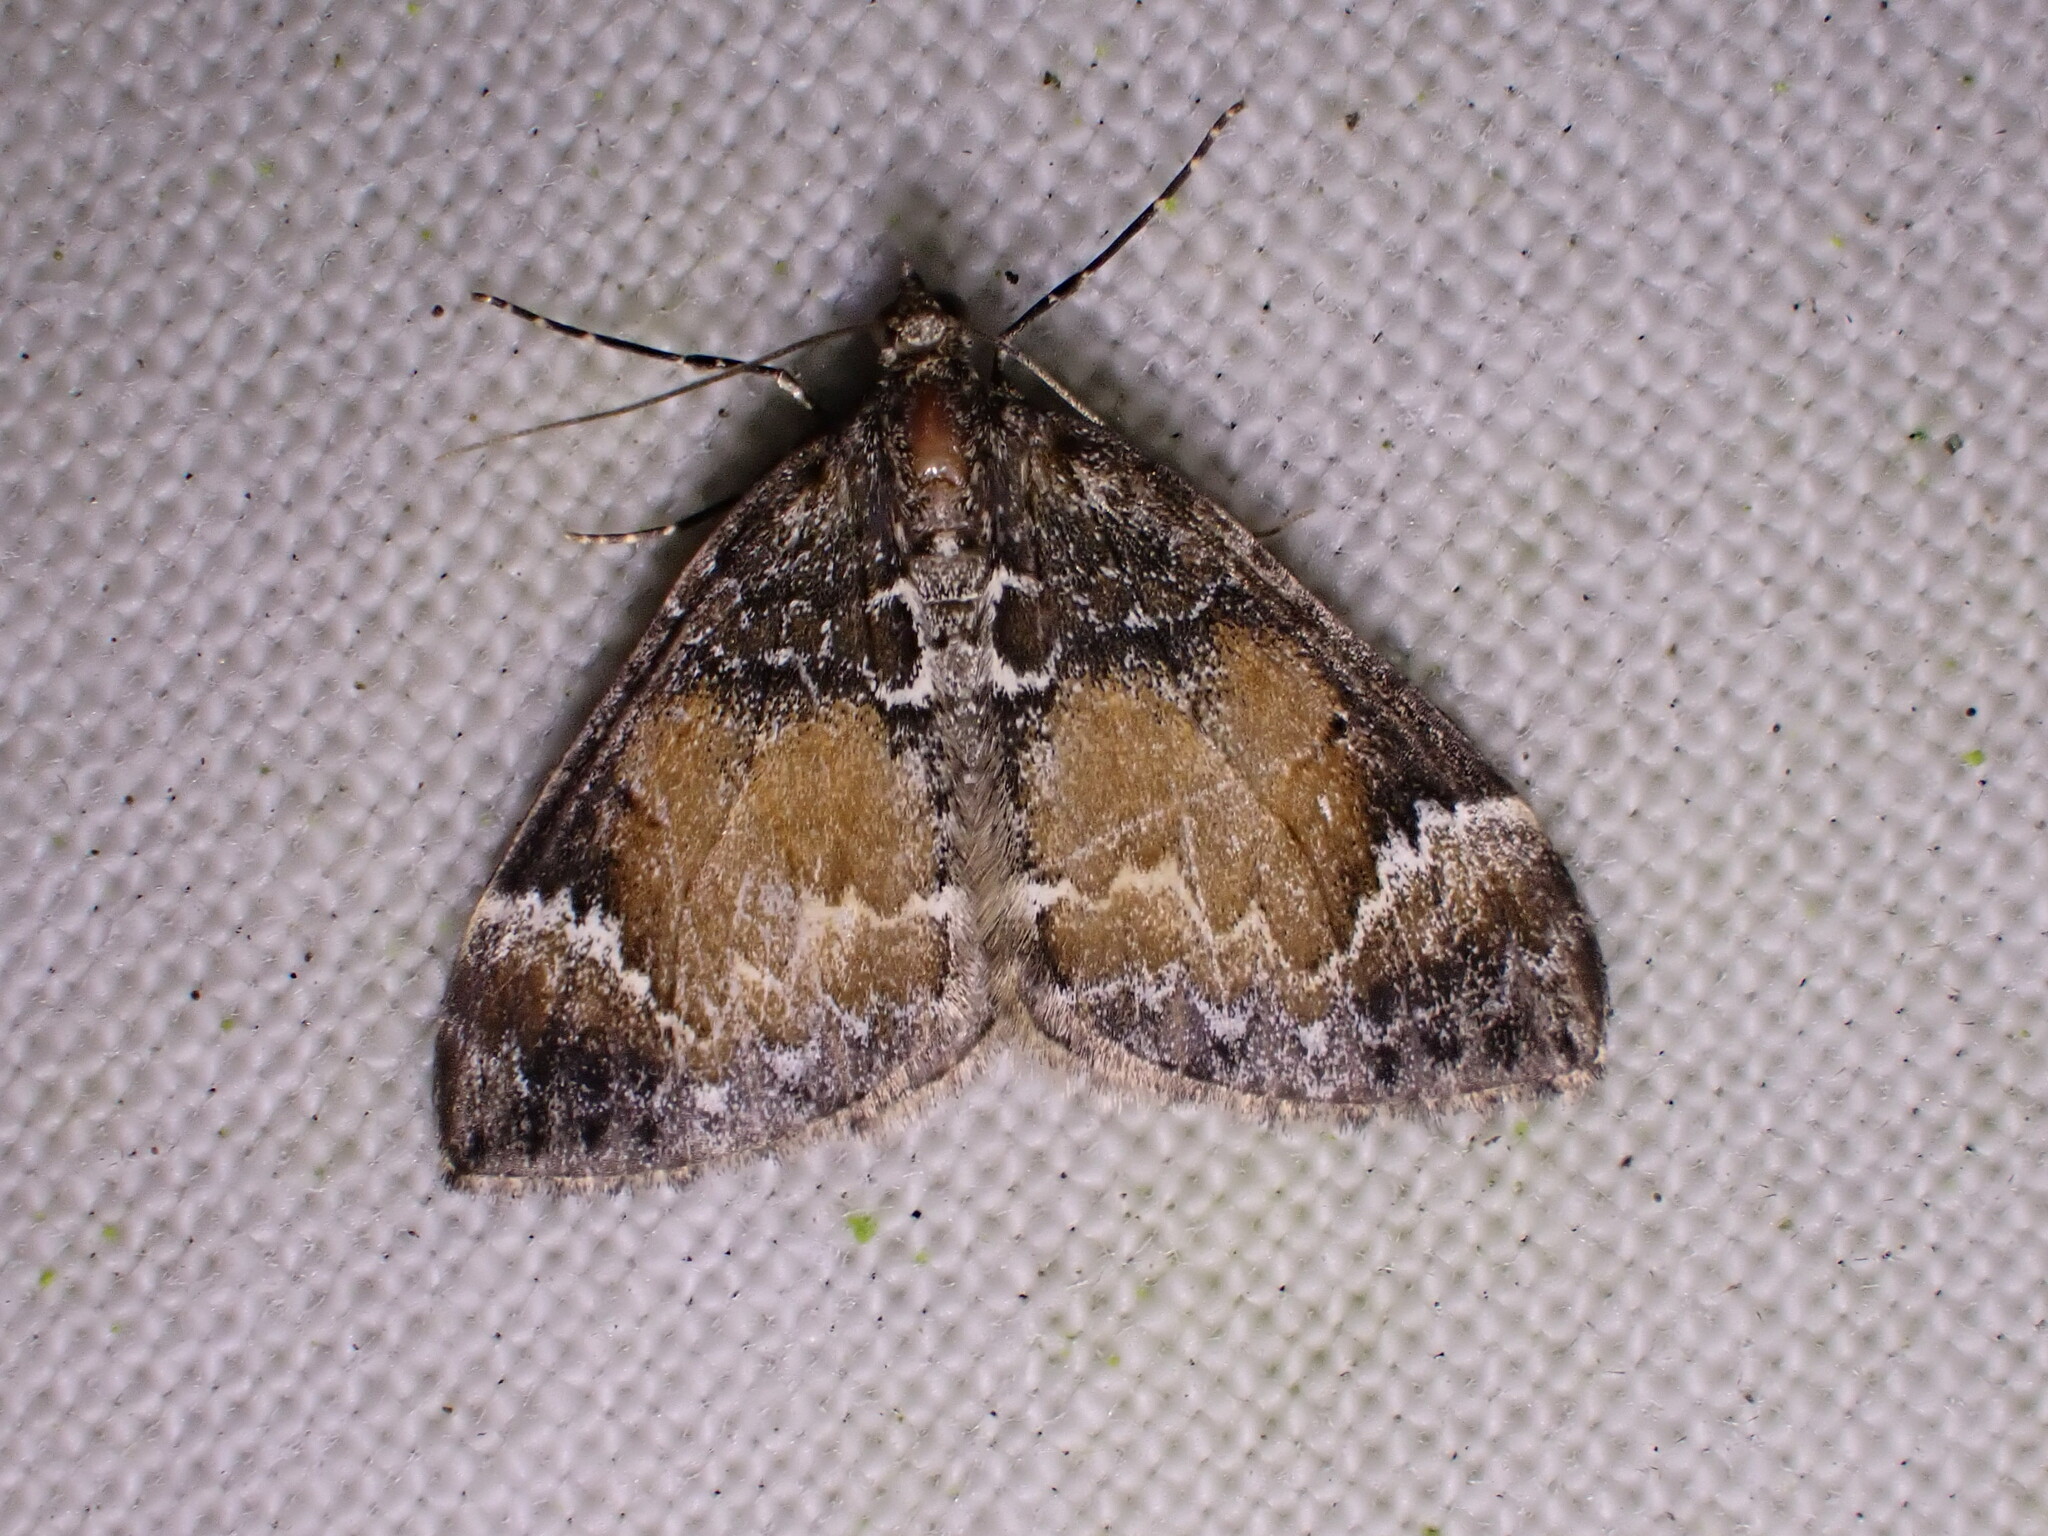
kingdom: Animalia
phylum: Arthropoda
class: Insecta
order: Lepidoptera
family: Geometridae
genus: Dysstroma
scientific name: Dysstroma truncata
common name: Common marbled carpet
